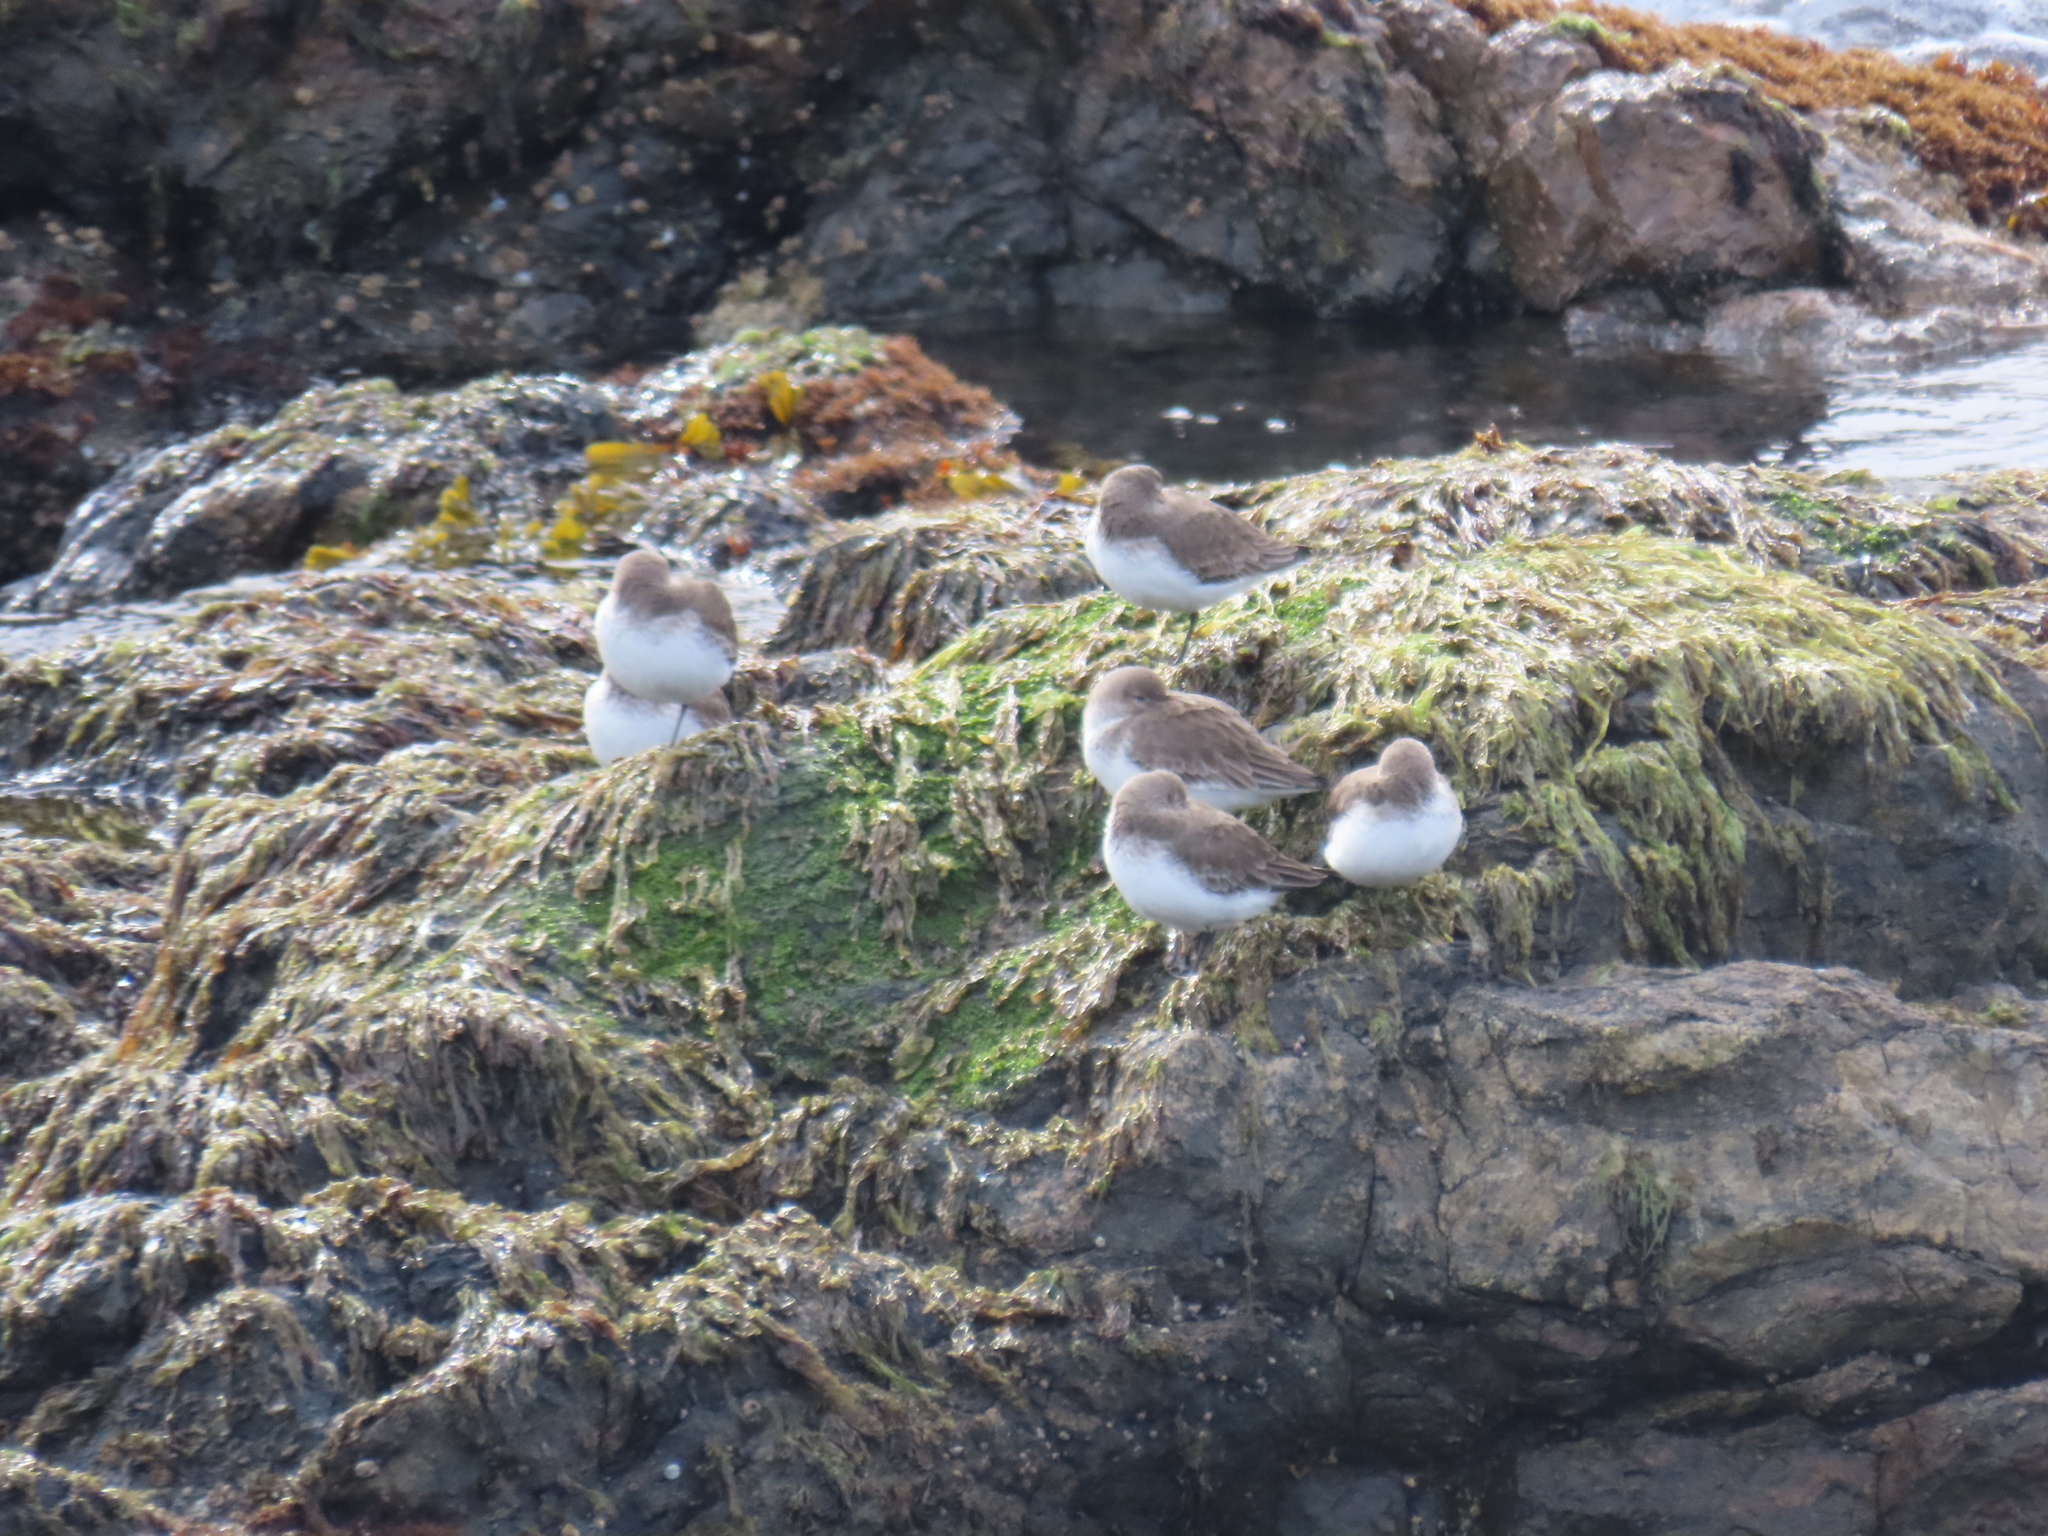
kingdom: Animalia
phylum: Chordata
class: Aves
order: Charadriiformes
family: Scolopacidae
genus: Calidris
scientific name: Calidris alpina
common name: Dunlin
